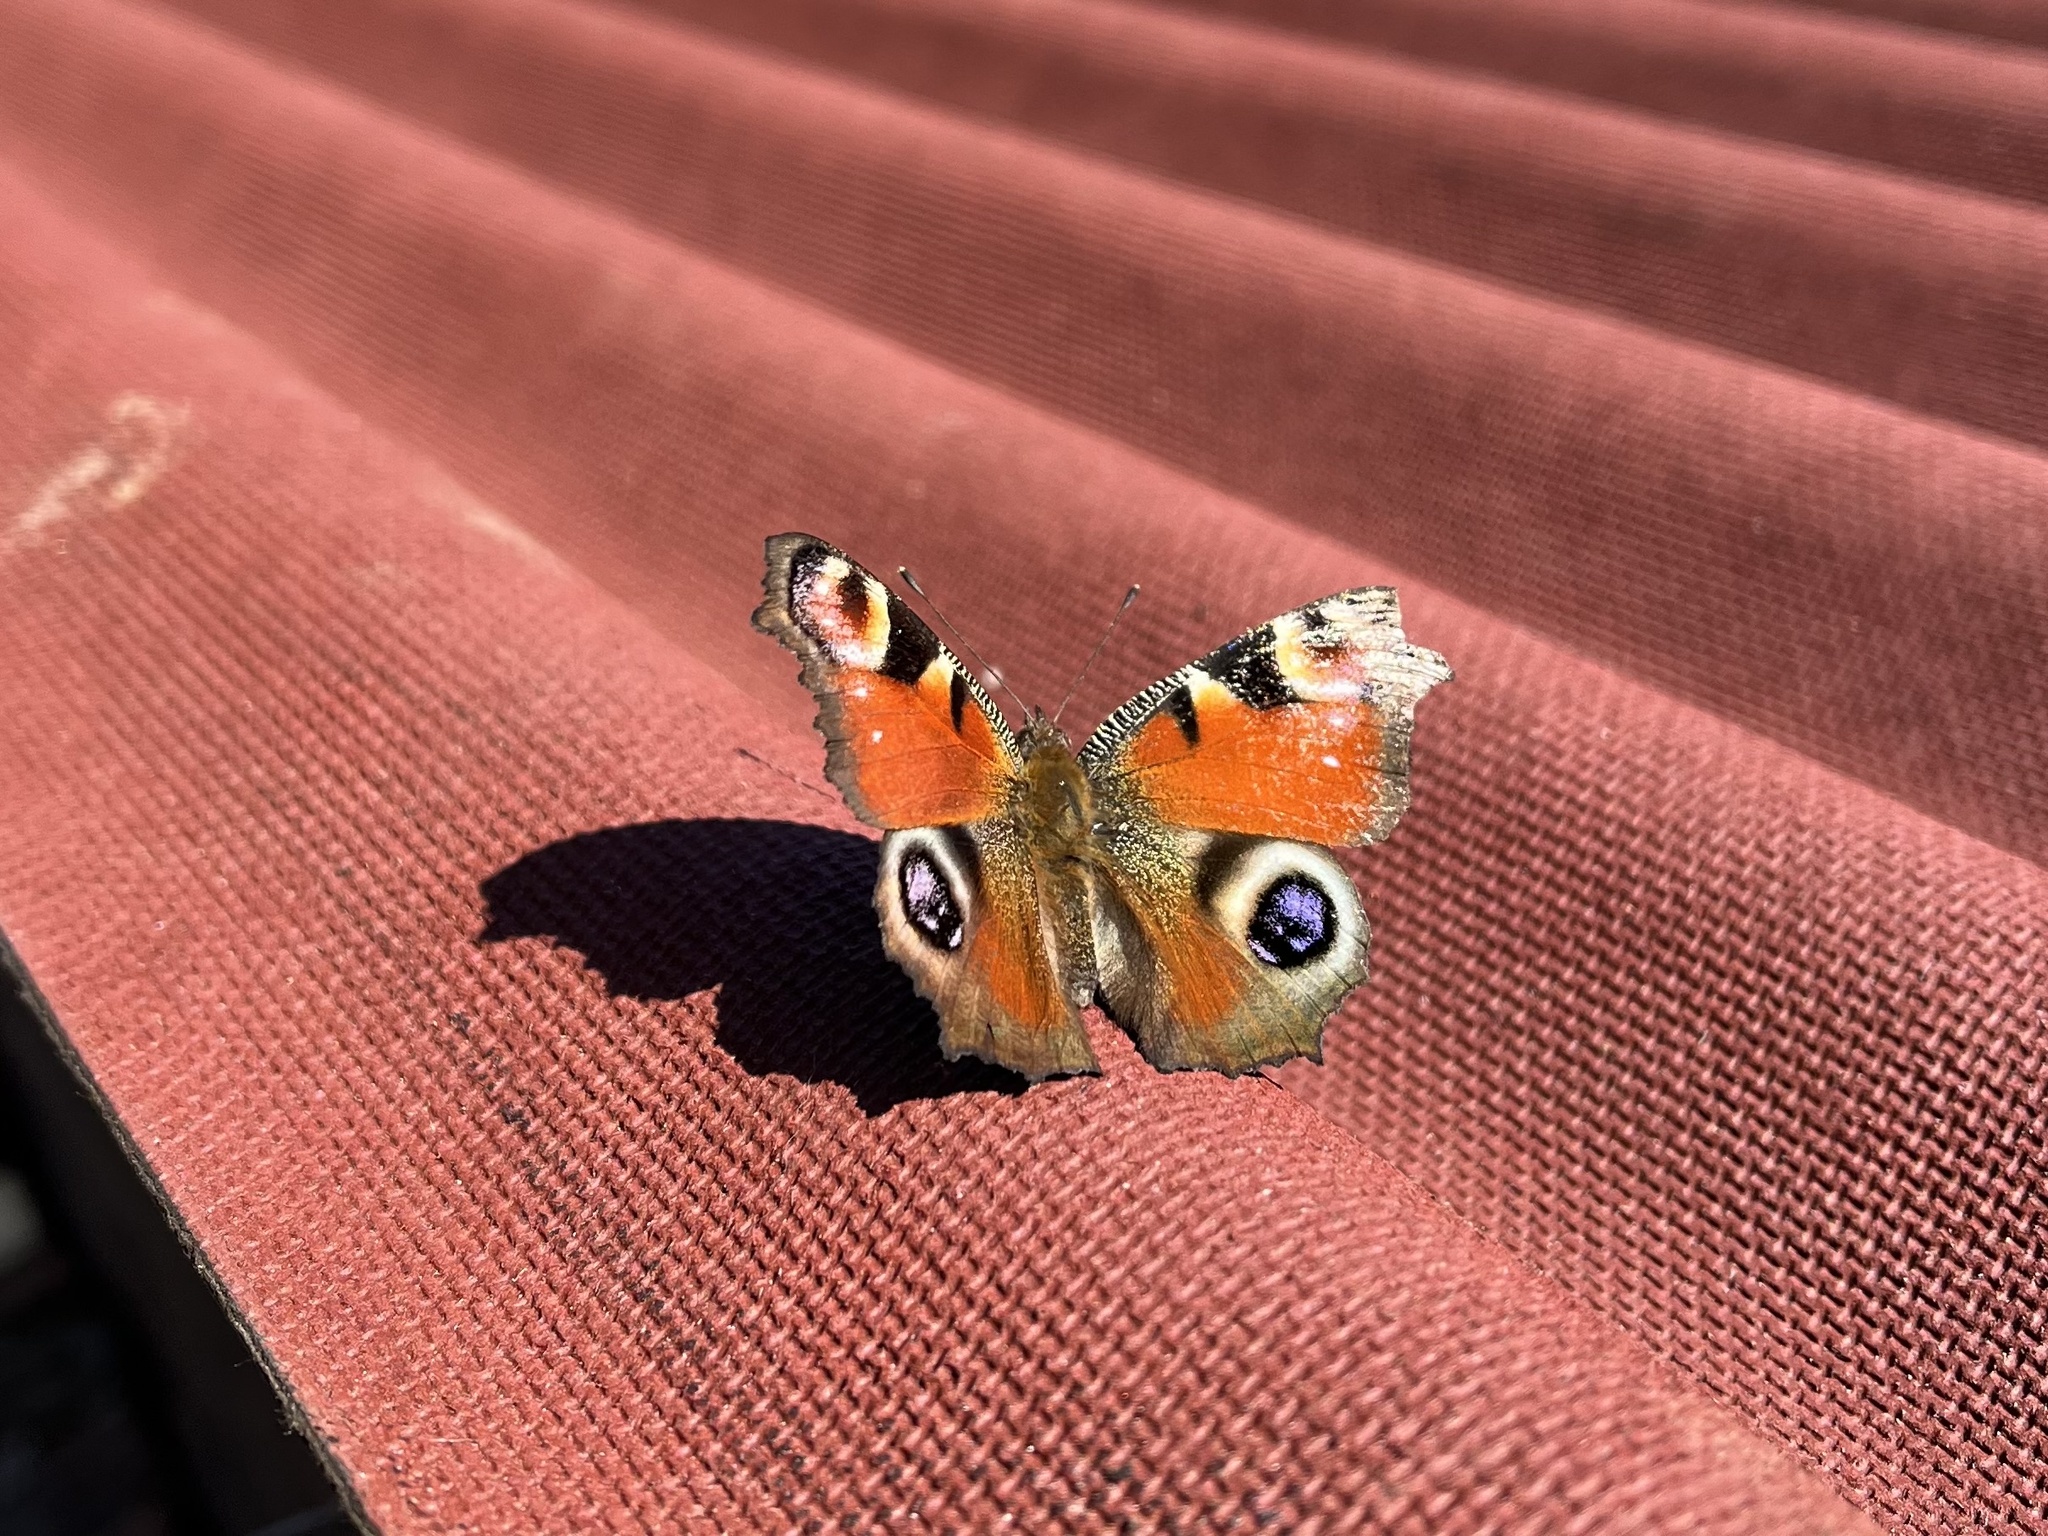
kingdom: Animalia
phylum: Arthropoda
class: Insecta
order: Lepidoptera
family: Nymphalidae
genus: Aglais
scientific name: Aglais io
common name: Peacock
